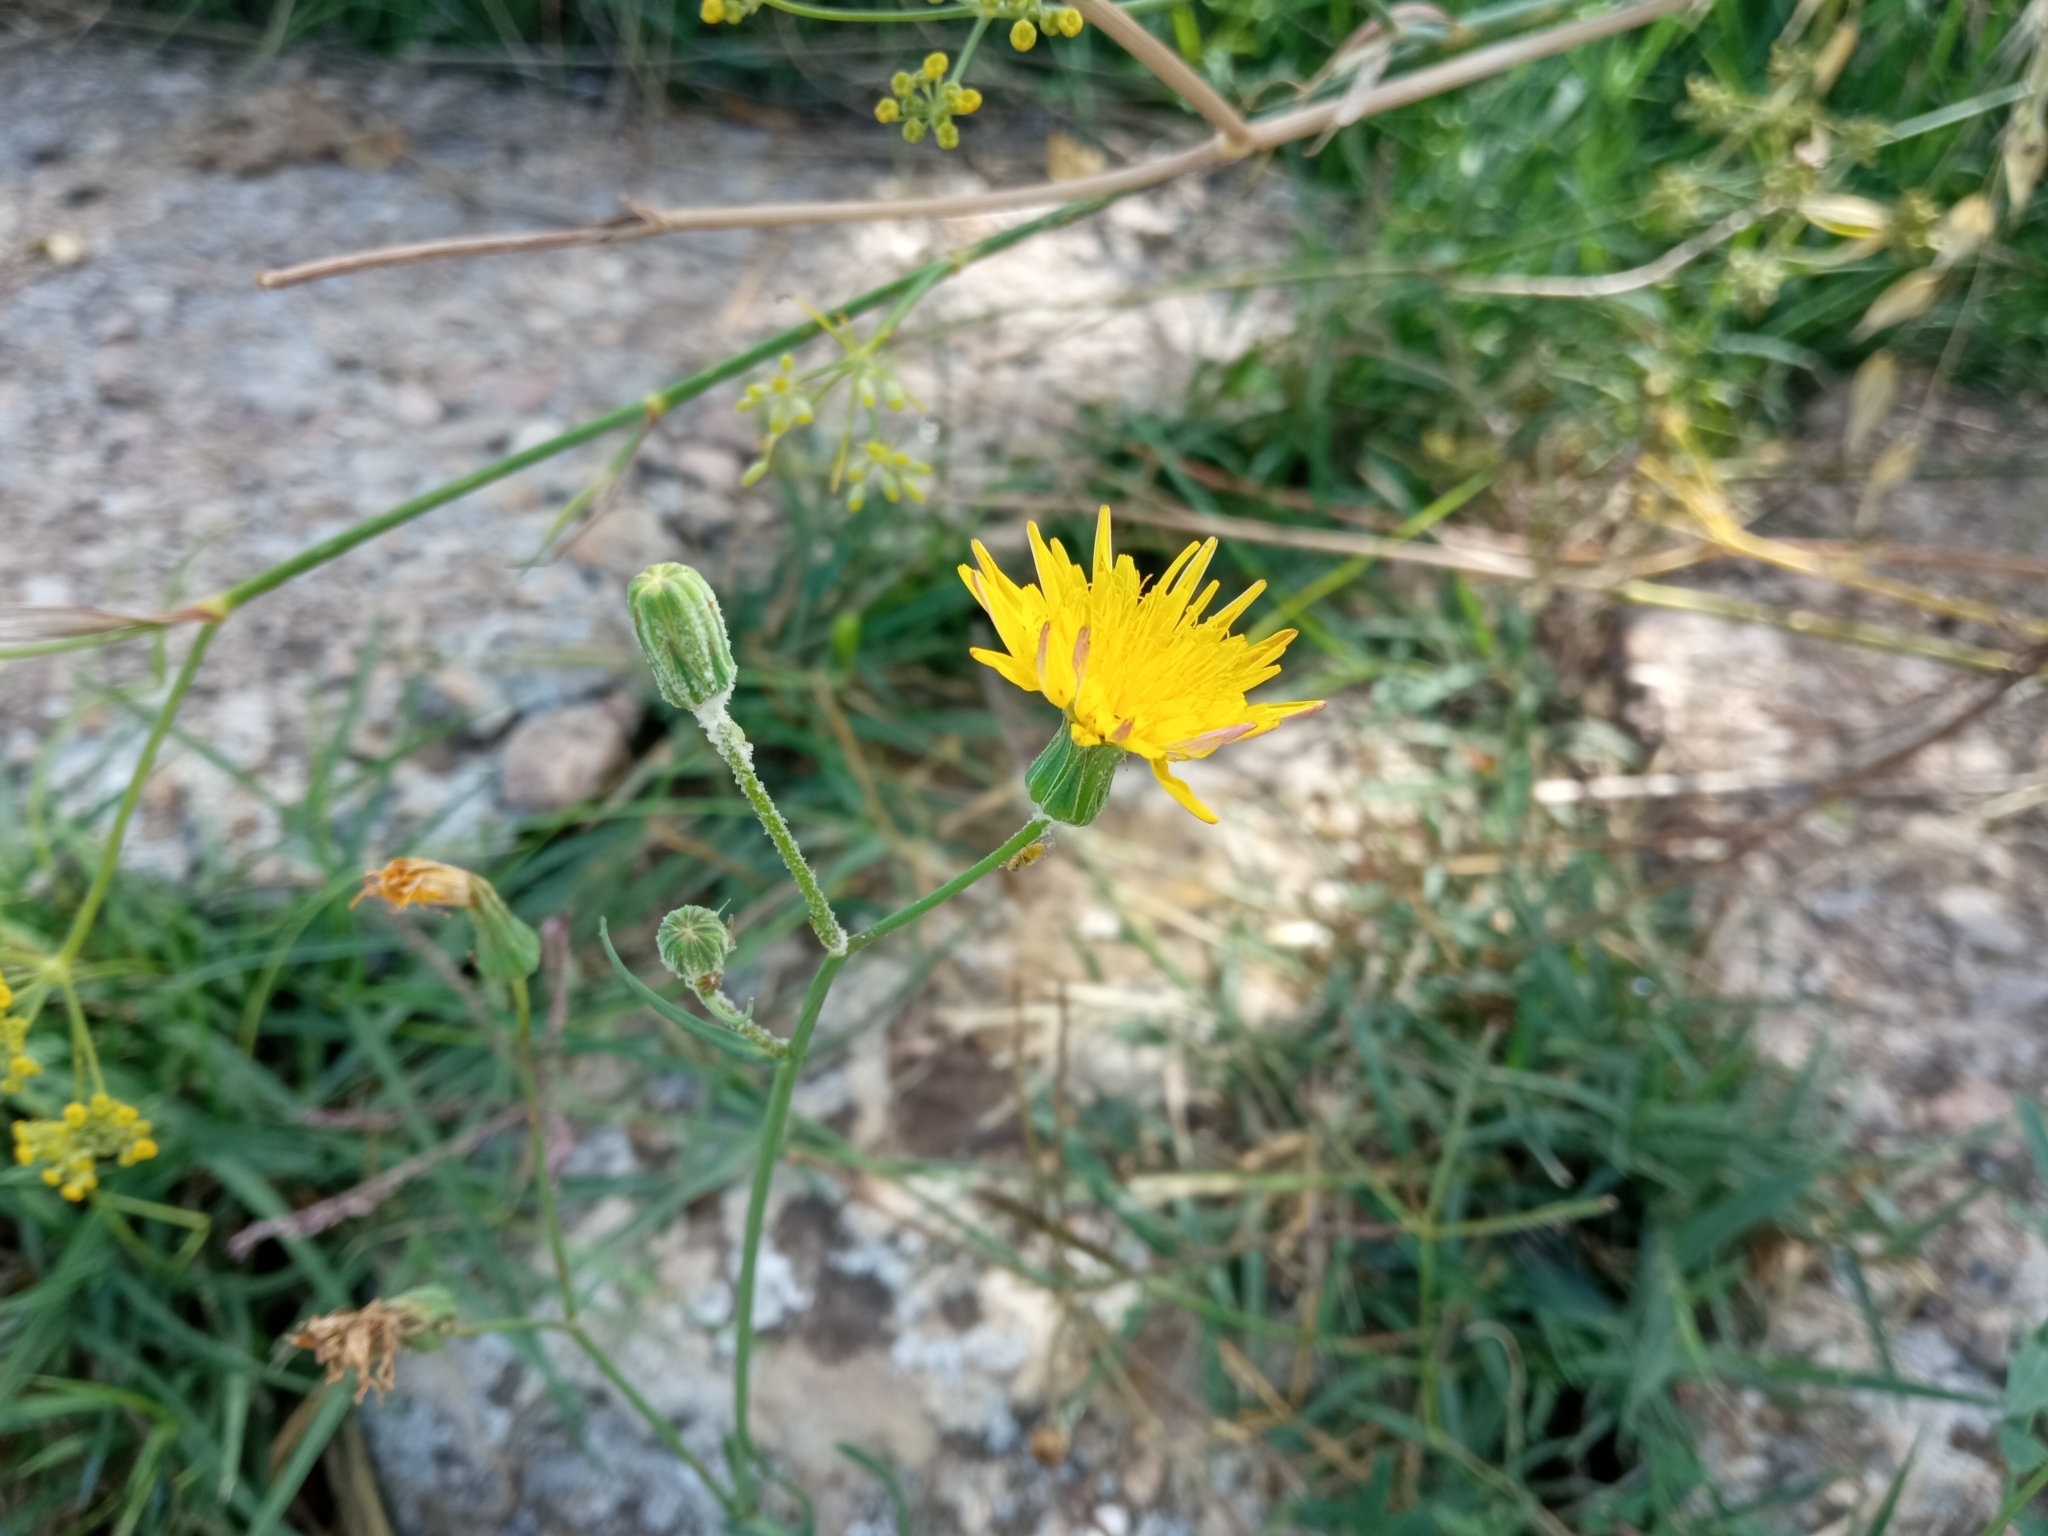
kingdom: Plantae
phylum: Tracheophyta
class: Magnoliopsida
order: Asterales
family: Asteraceae
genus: Sonchus
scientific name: Sonchus tenerrimus
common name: Clammy sowthistle
